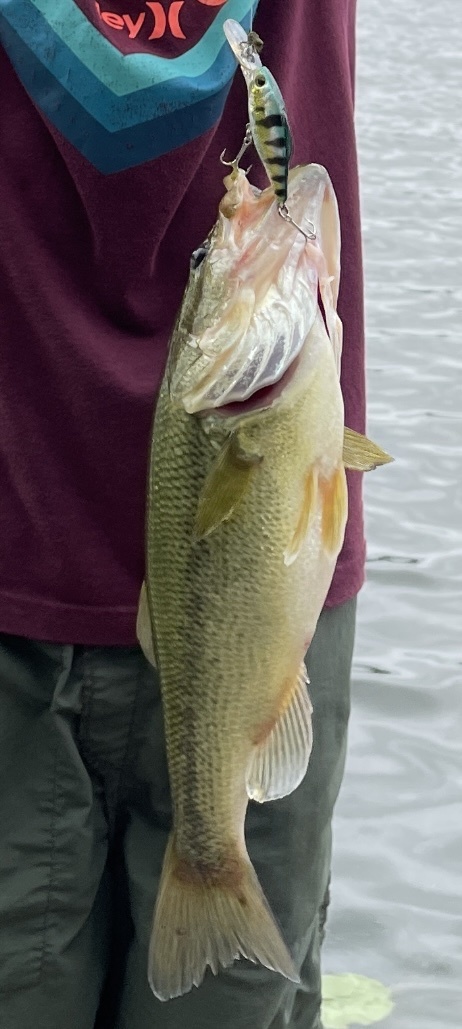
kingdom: Animalia
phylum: Chordata
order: Perciformes
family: Centrarchidae
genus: Micropterus
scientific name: Micropterus
